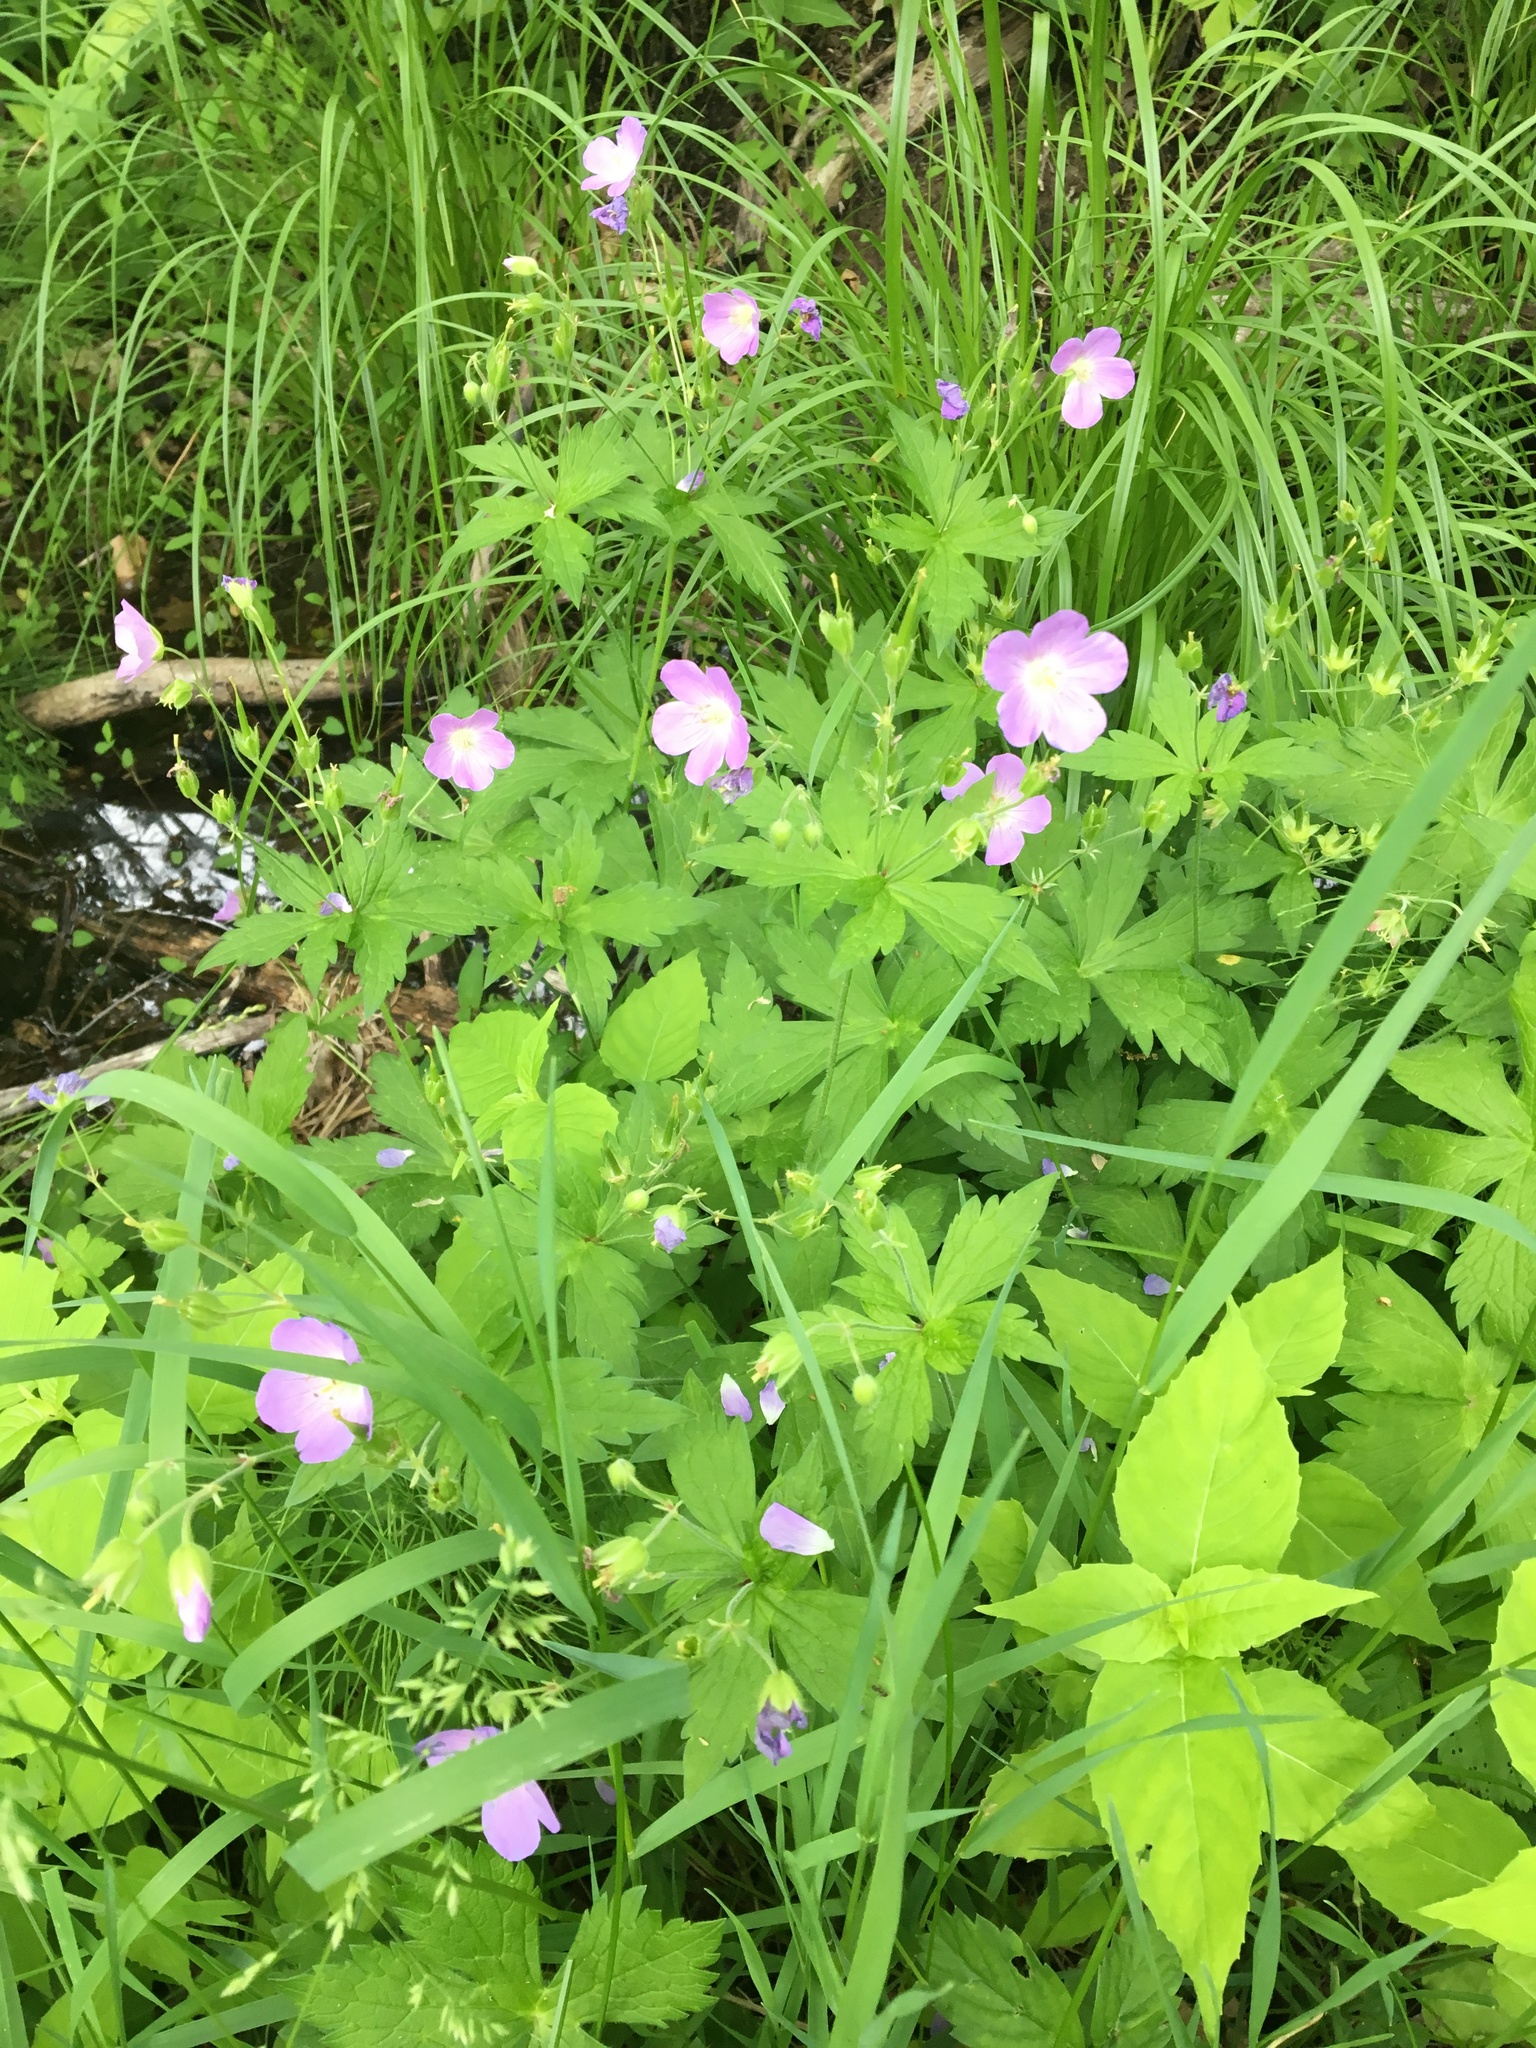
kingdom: Plantae
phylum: Tracheophyta
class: Magnoliopsida
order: Geraniales
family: Geraniaceae
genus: Geranium
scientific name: Geranium maculatum
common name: Spotted geranium
